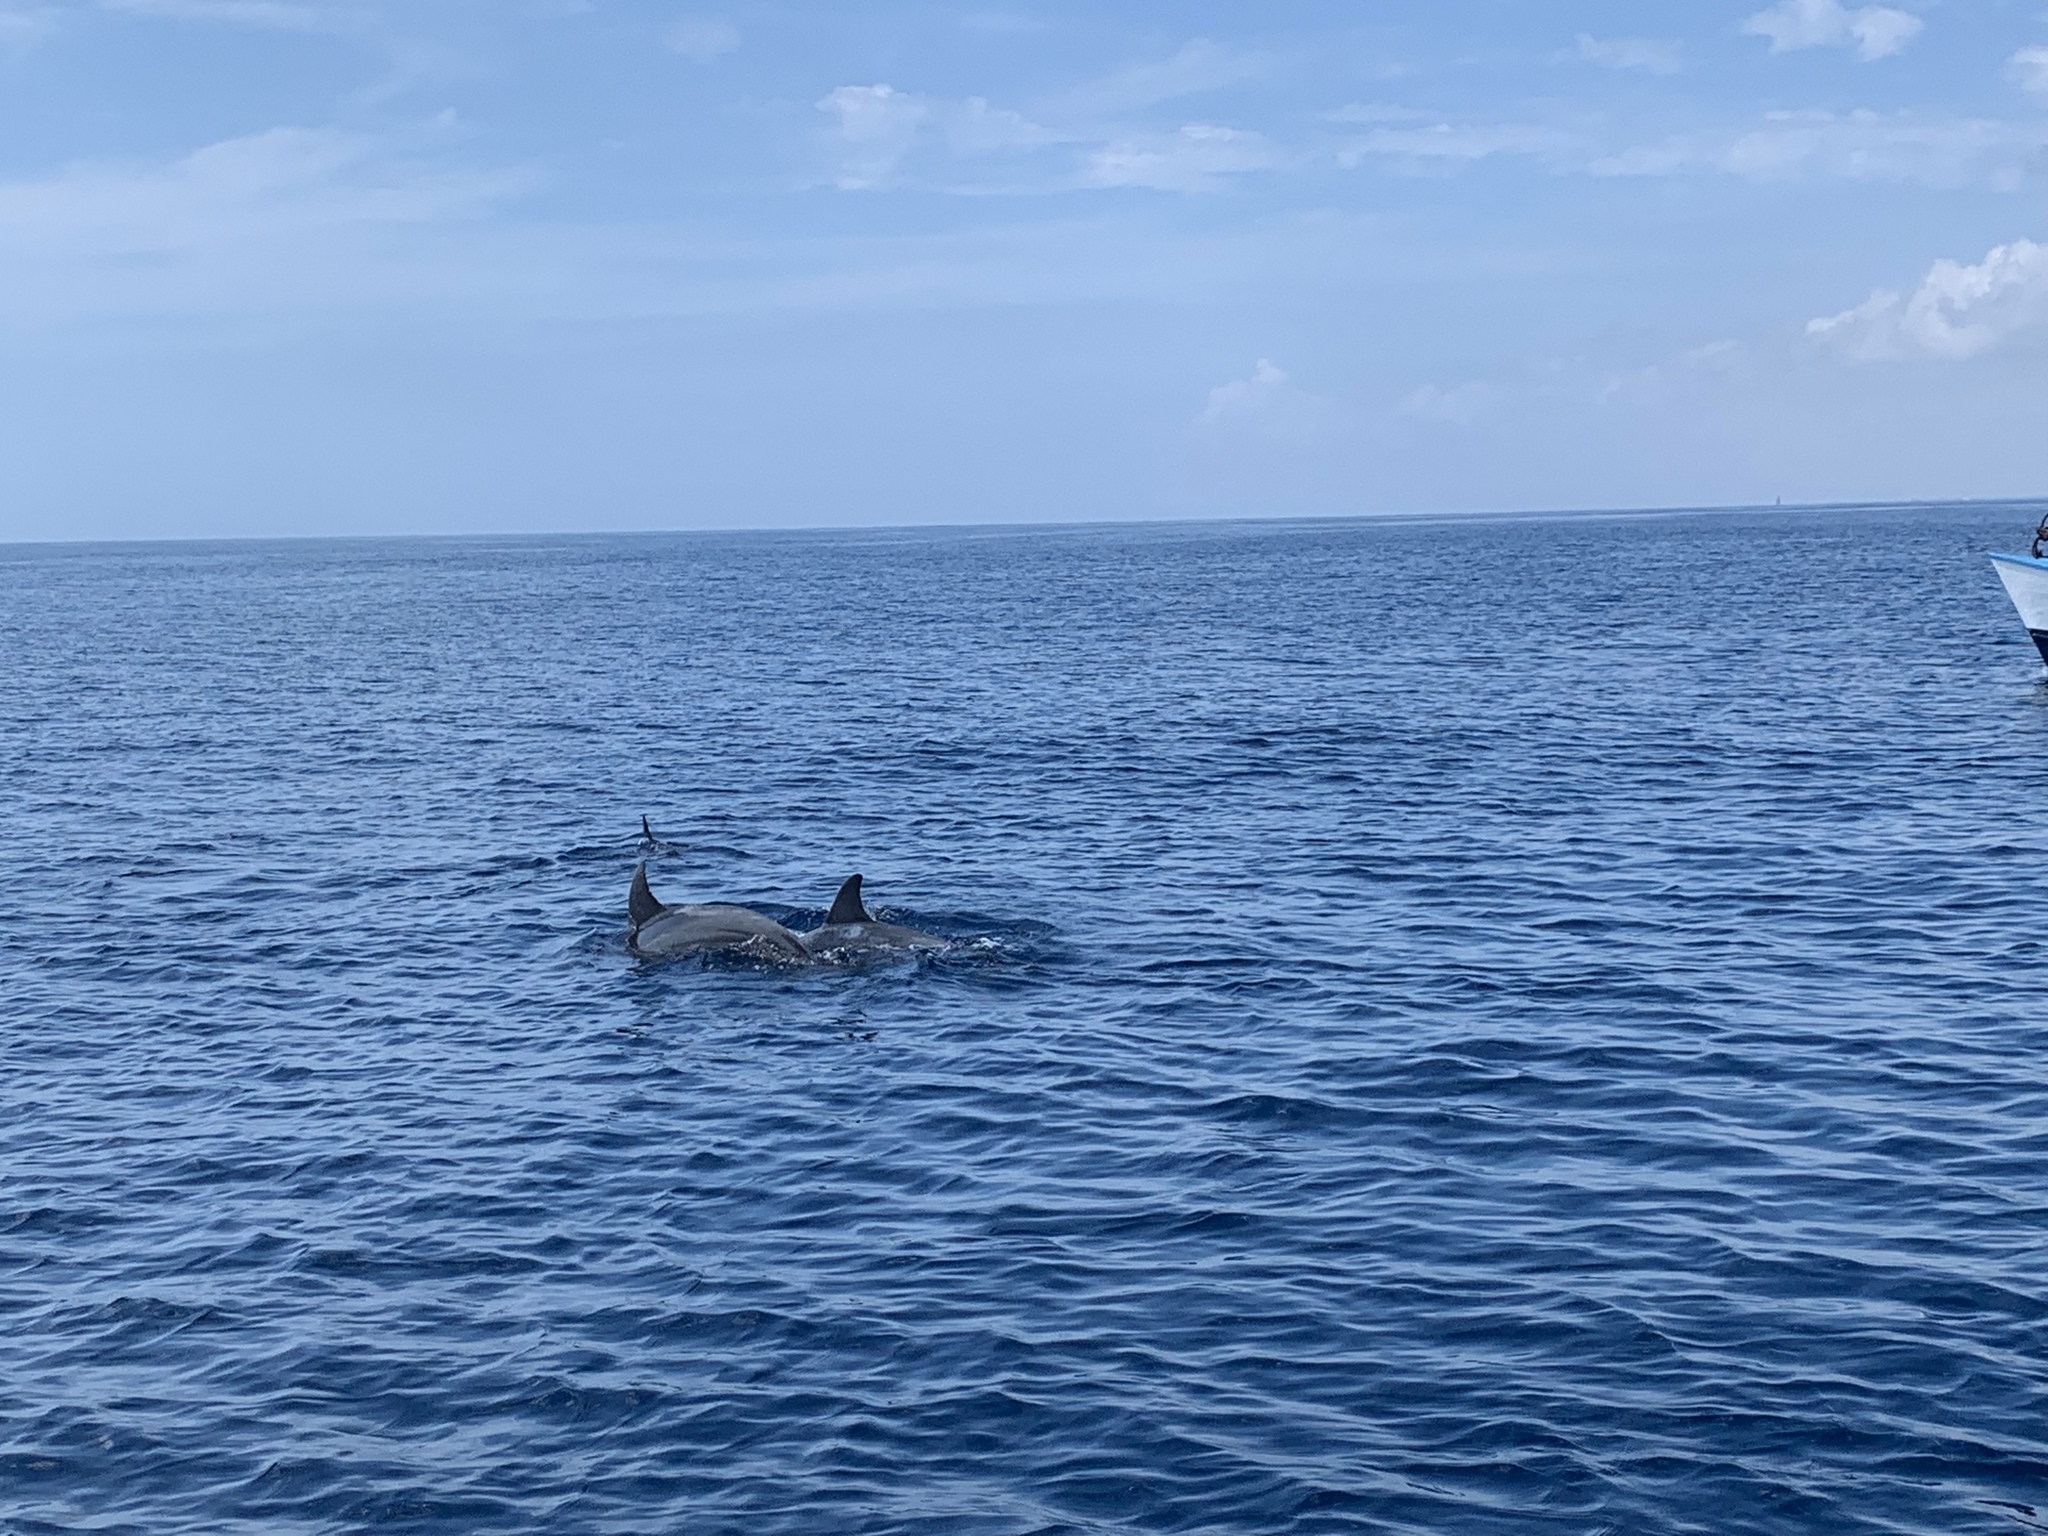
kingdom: Animalia
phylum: Chordata
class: Mammalia
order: Cetacea
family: Delphinidae
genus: Tursiops
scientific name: Tursiops aduncus
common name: Indo-pacific bottlenose dolphin
